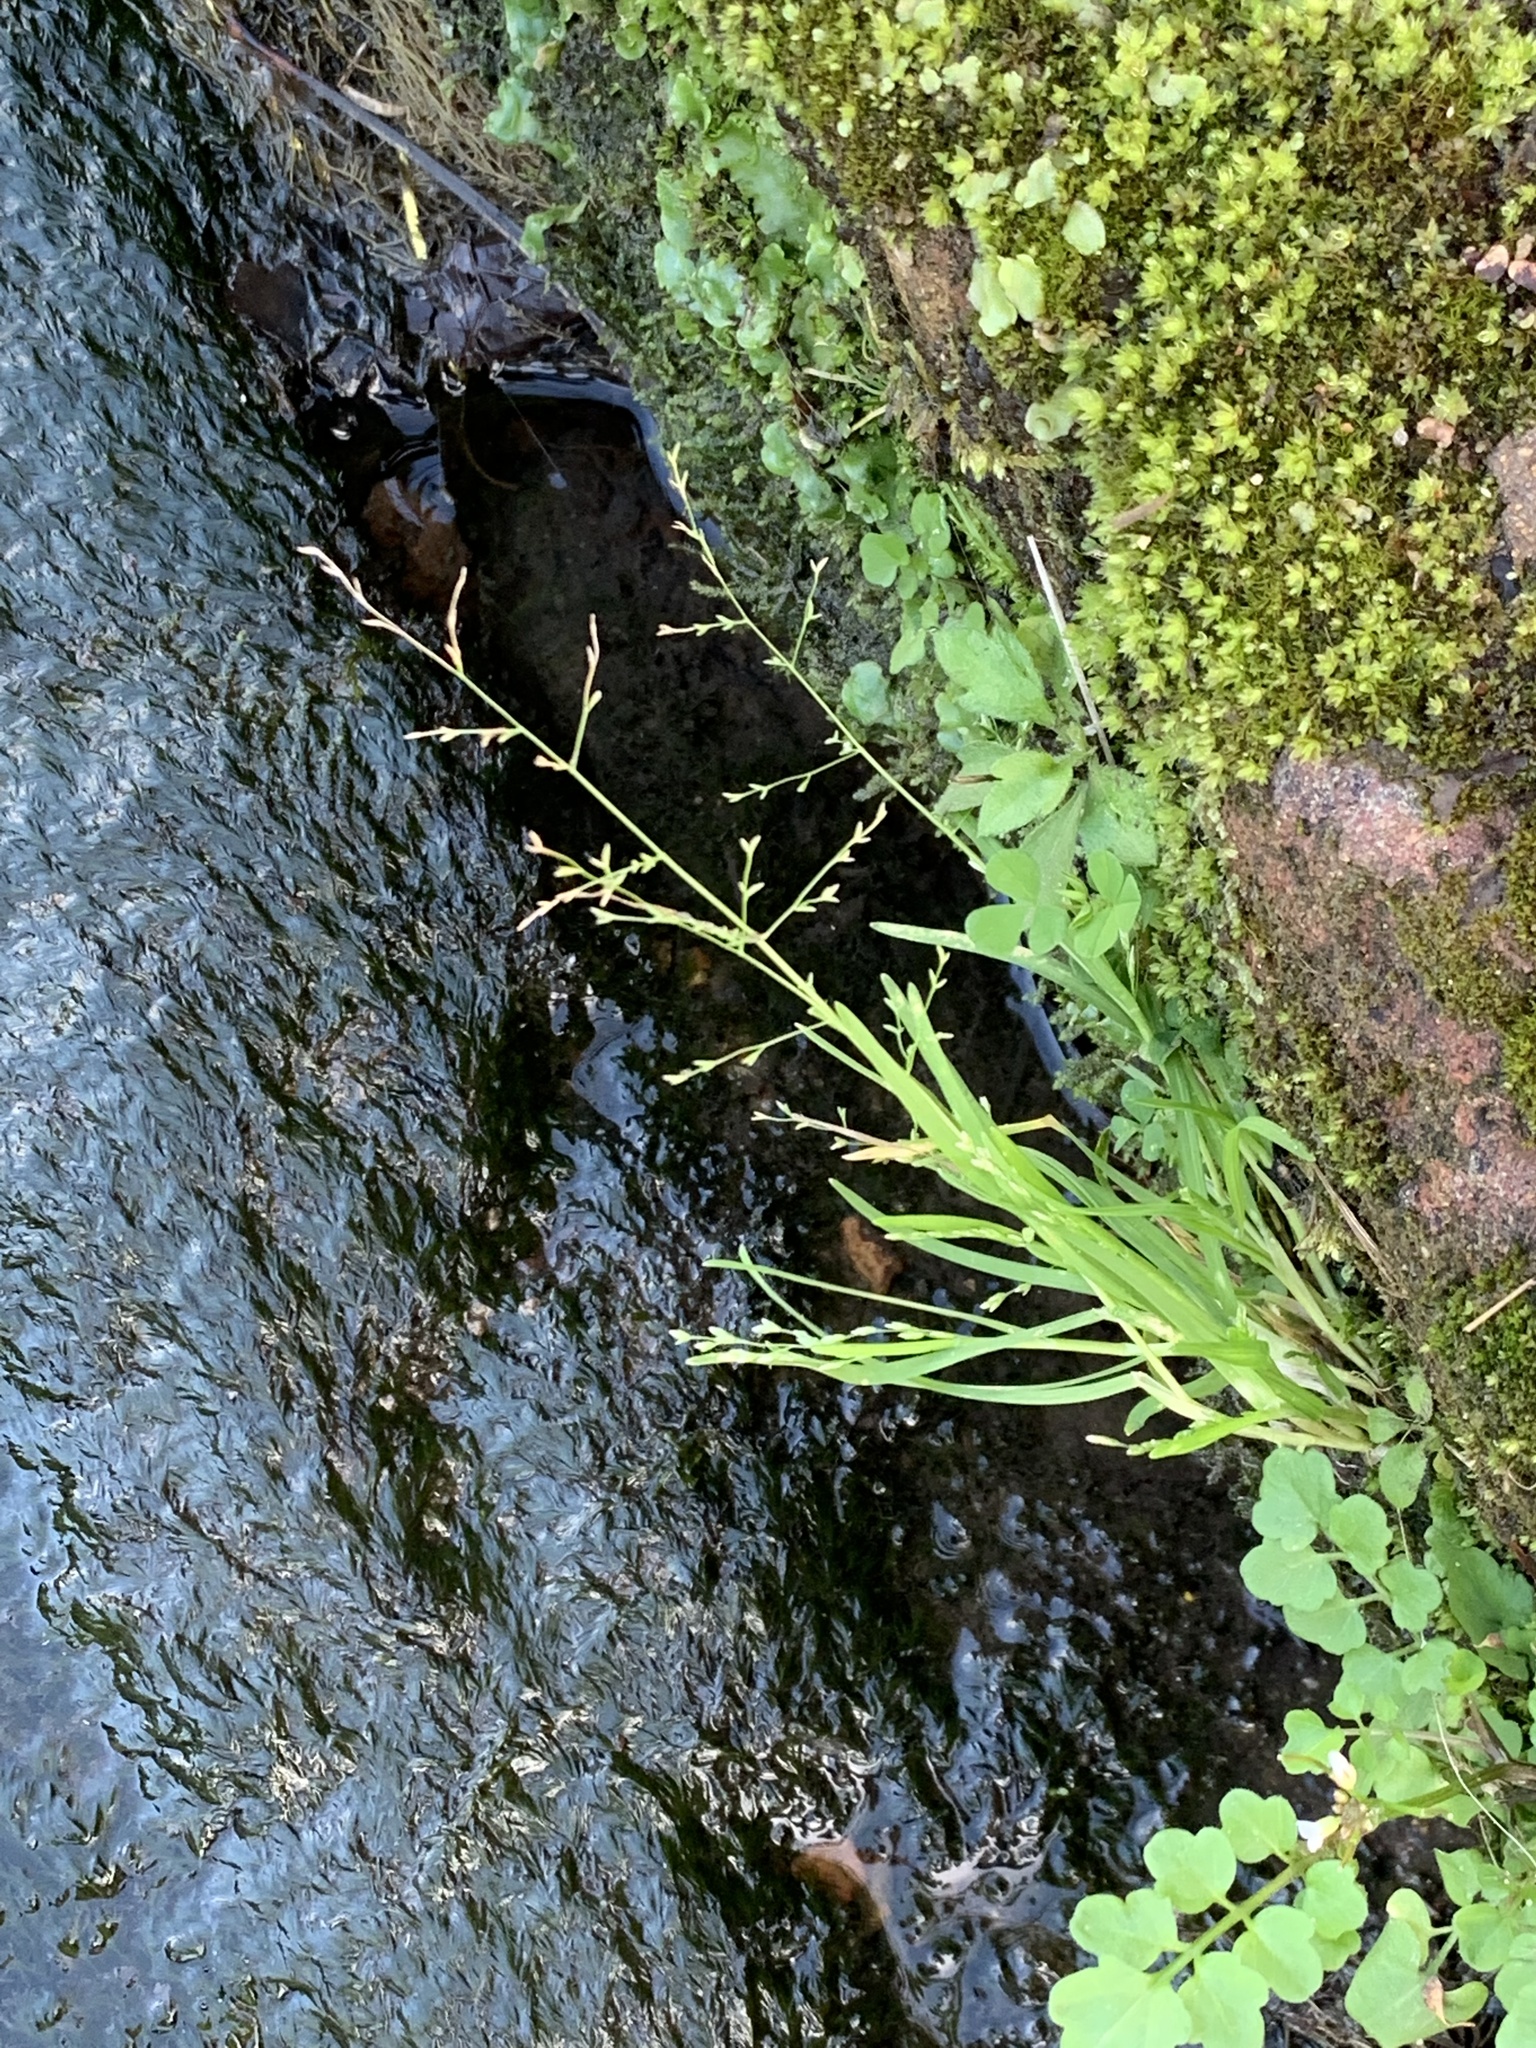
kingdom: Plantae
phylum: Tracheophyta
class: Liliopsida
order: Poales
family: Poaceae
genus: Poa
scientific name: Poa annua
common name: Annual bluegrass
